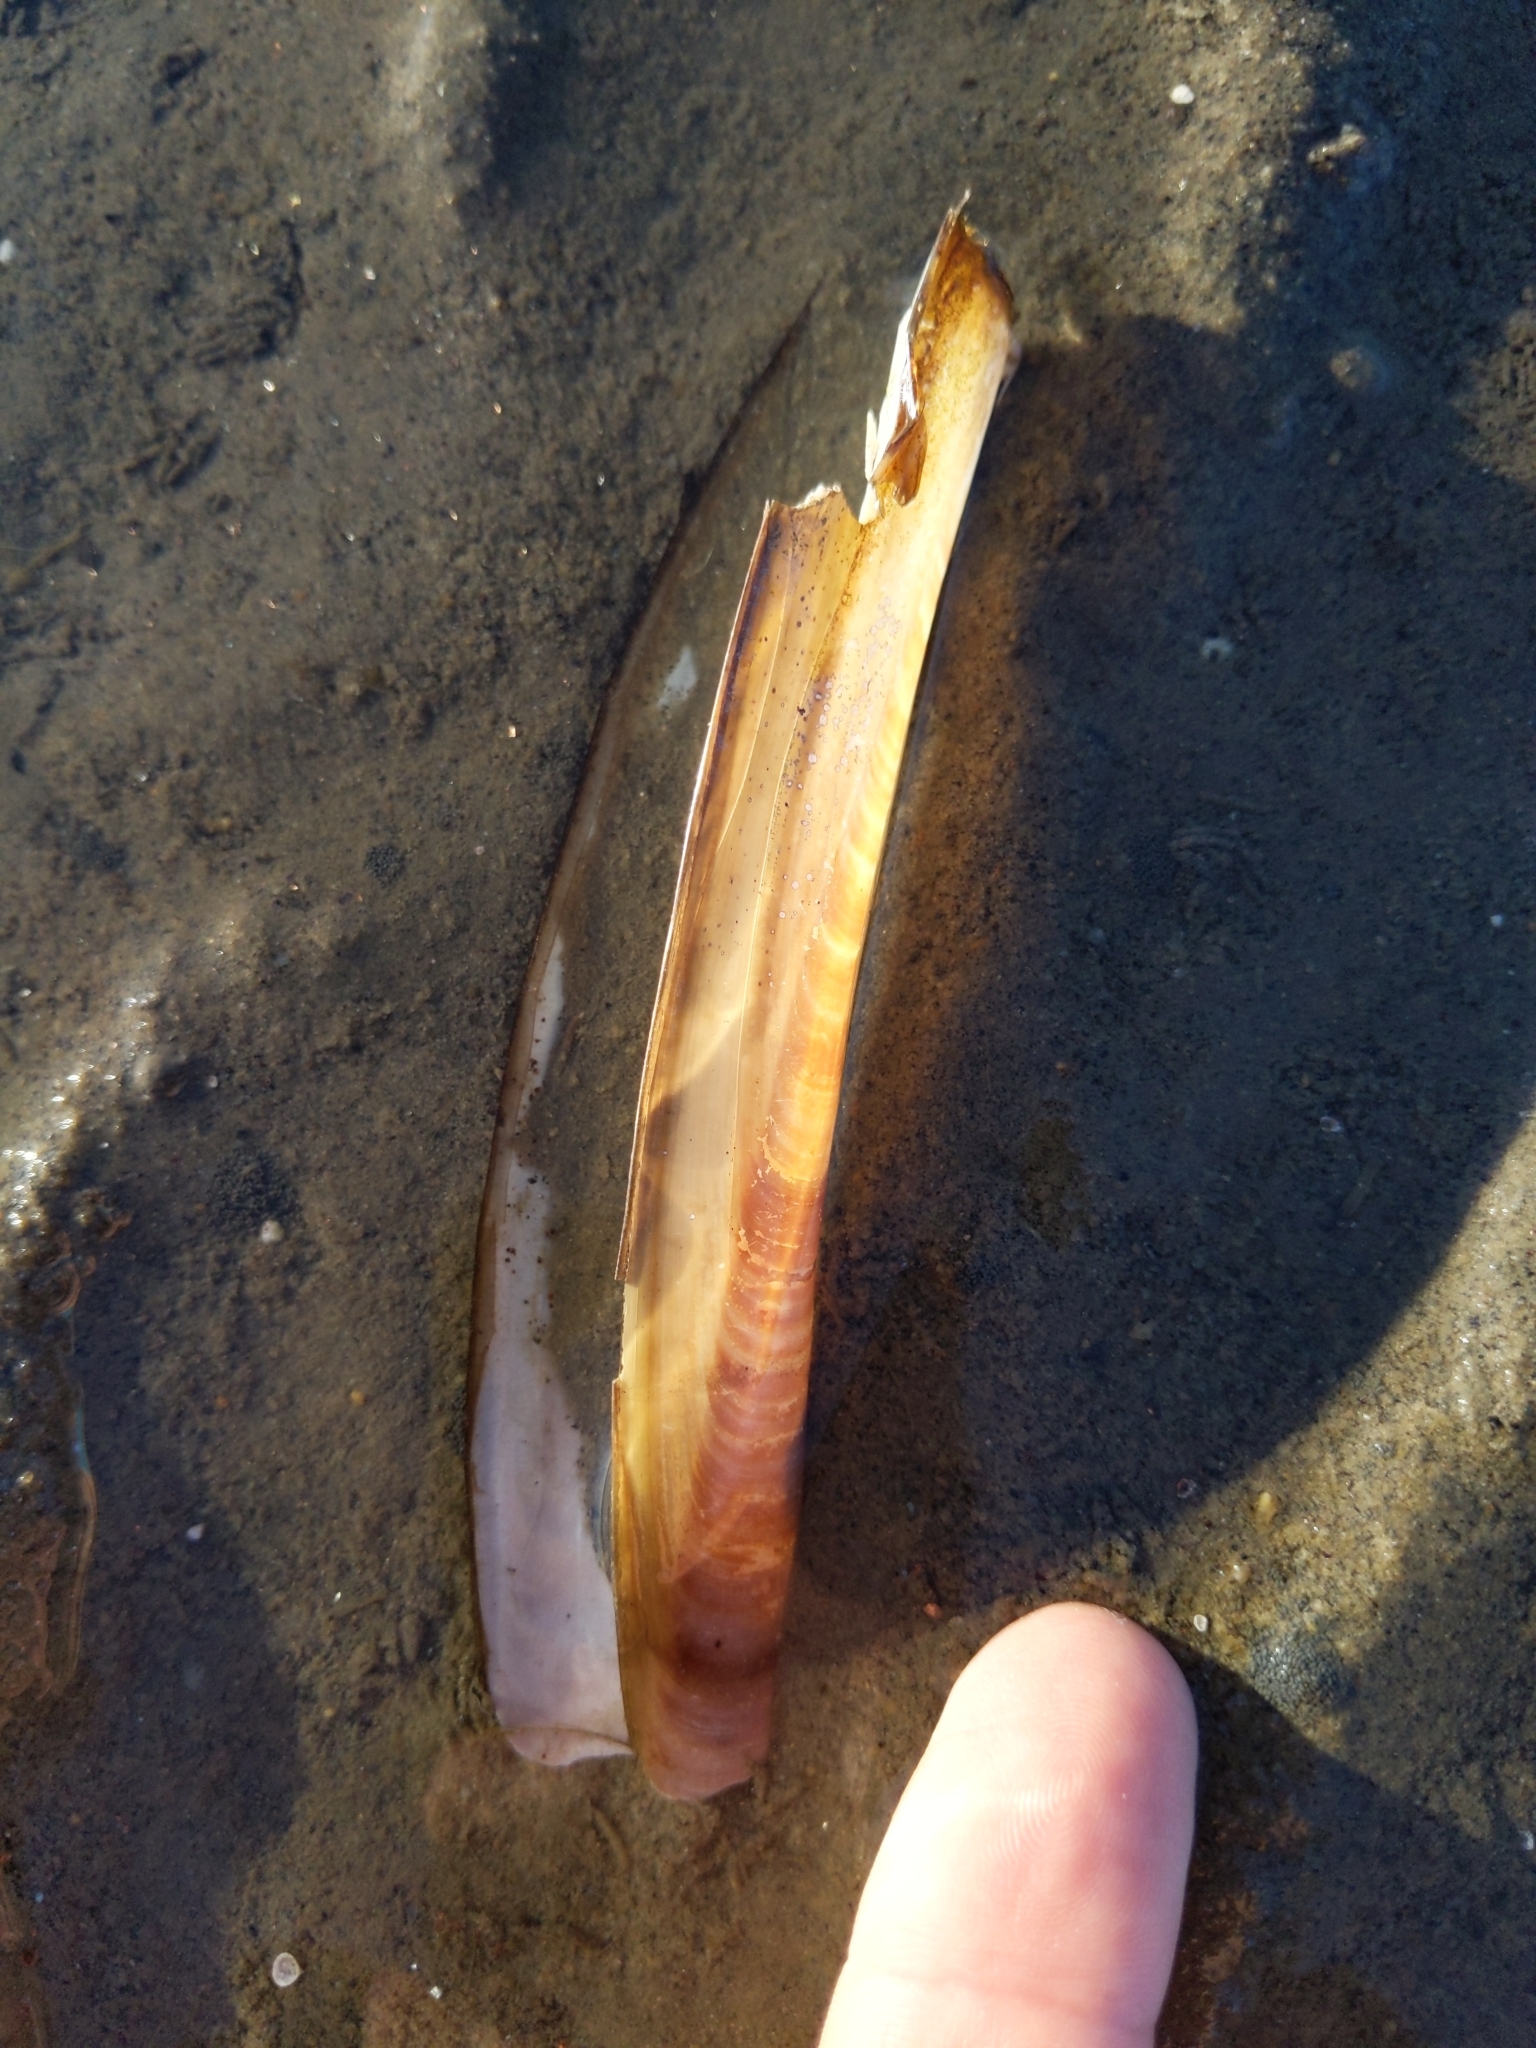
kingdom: Animalia
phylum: Mollusca
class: Bivalvia
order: Adapedonta
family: Pharidae
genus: Ensis
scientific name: Ensis leei
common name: American jack knife clam
